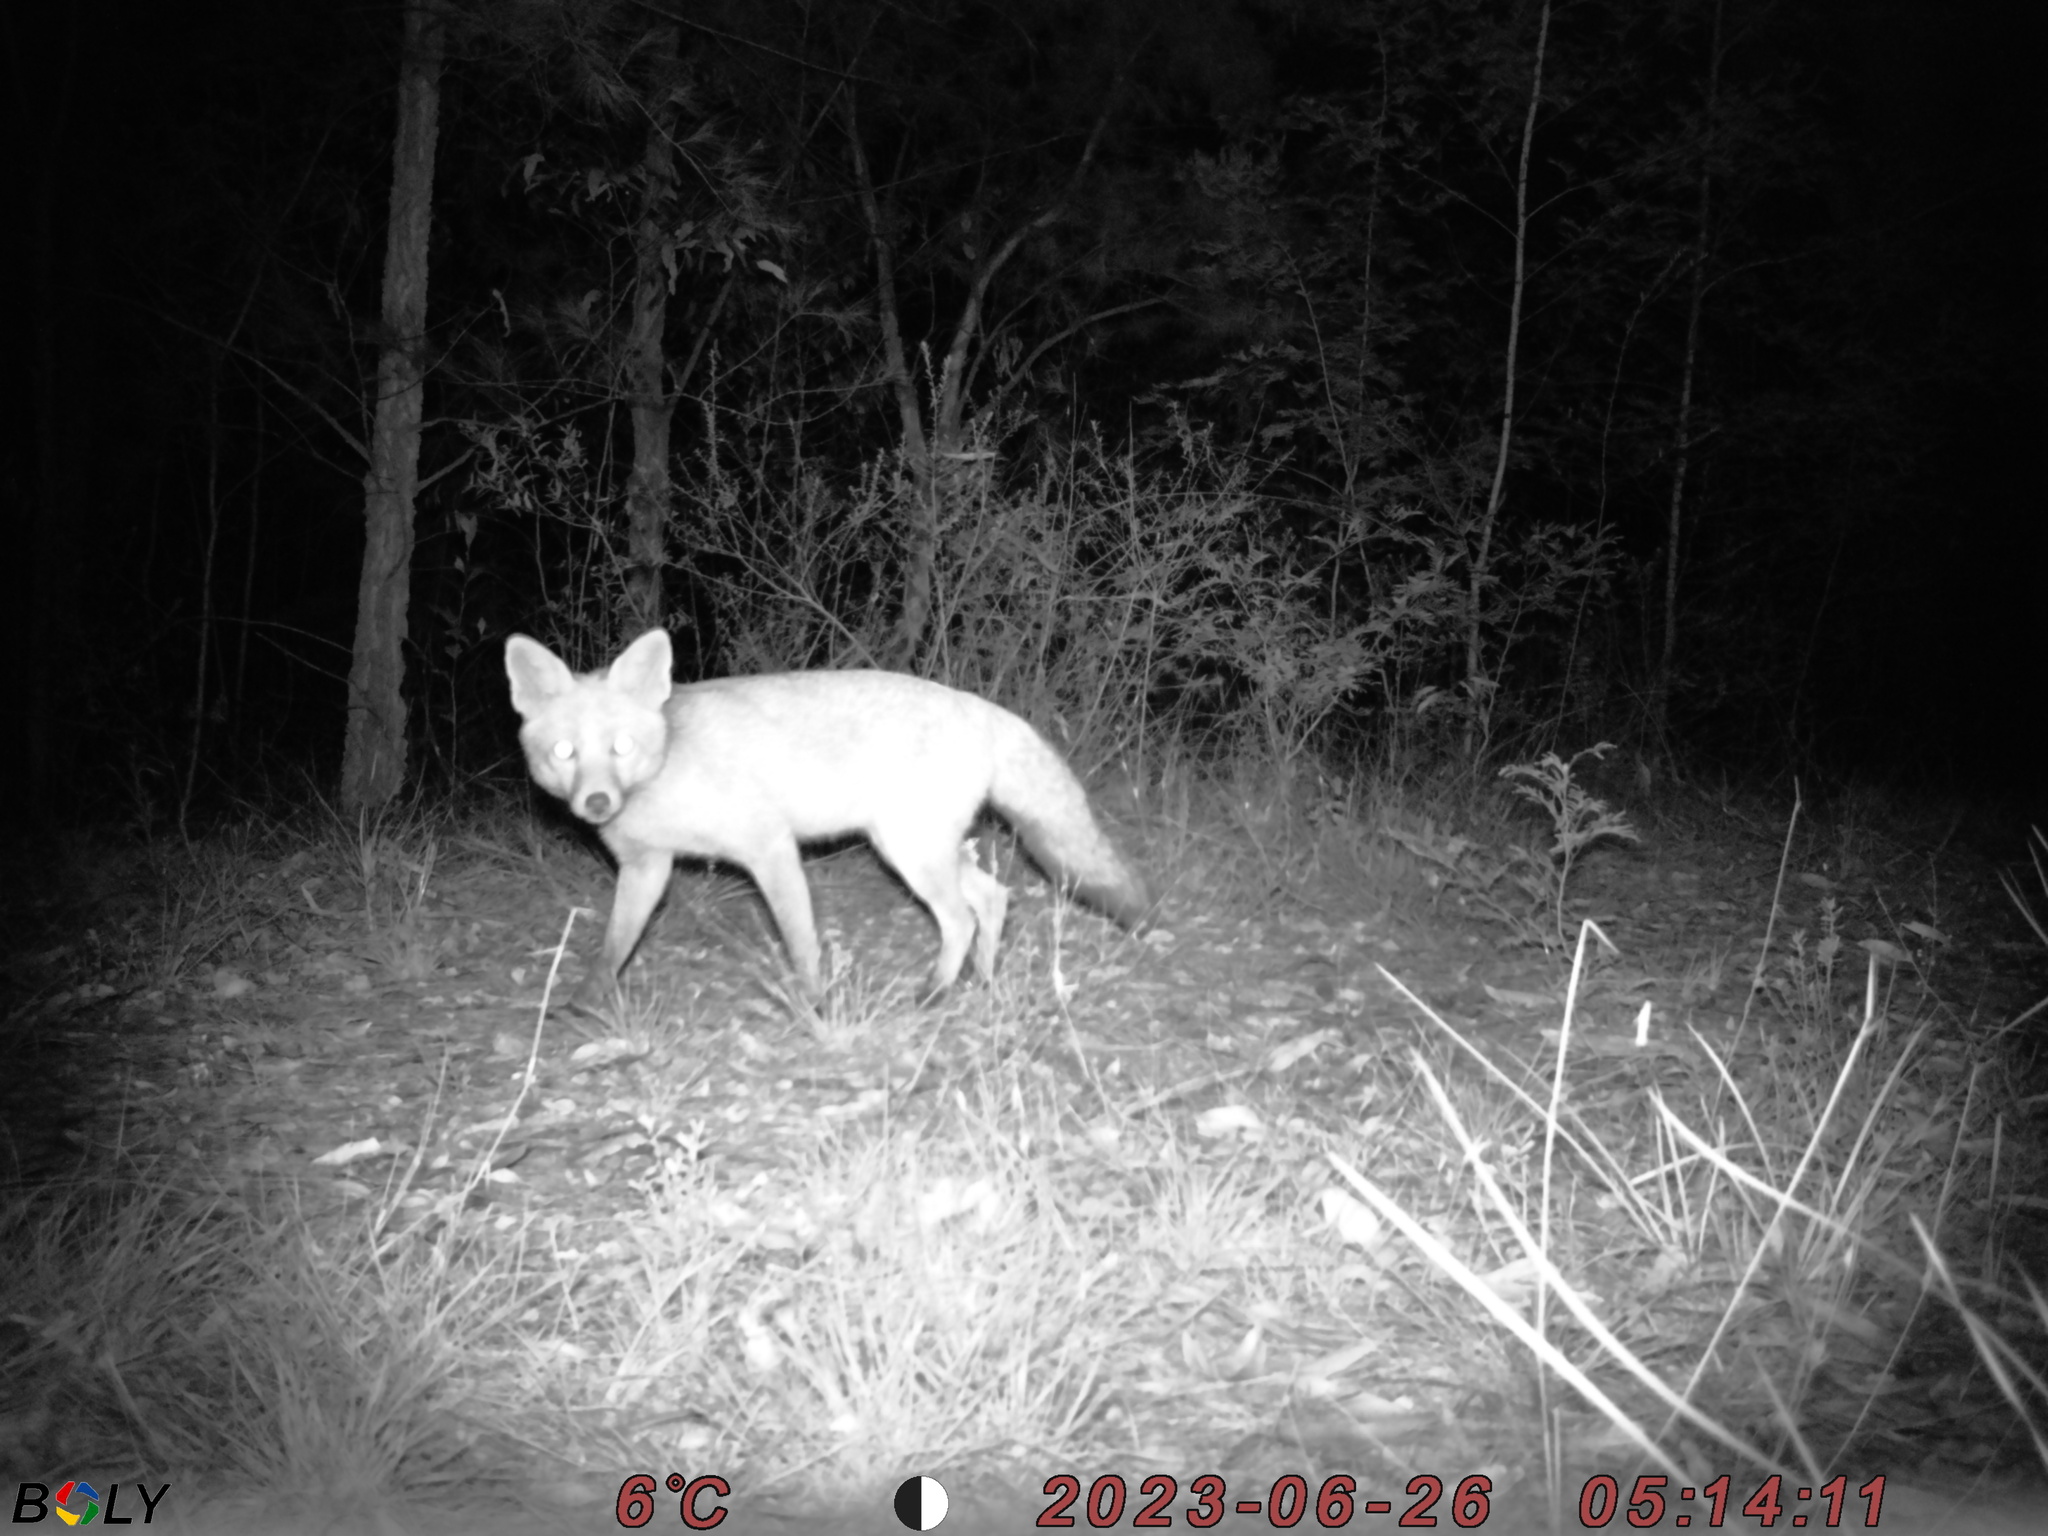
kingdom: Animalia
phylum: Chordata
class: Mammalia
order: Carnivora
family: Canidae
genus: Vulpes
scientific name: Vulpes vulpes
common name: Red fox
